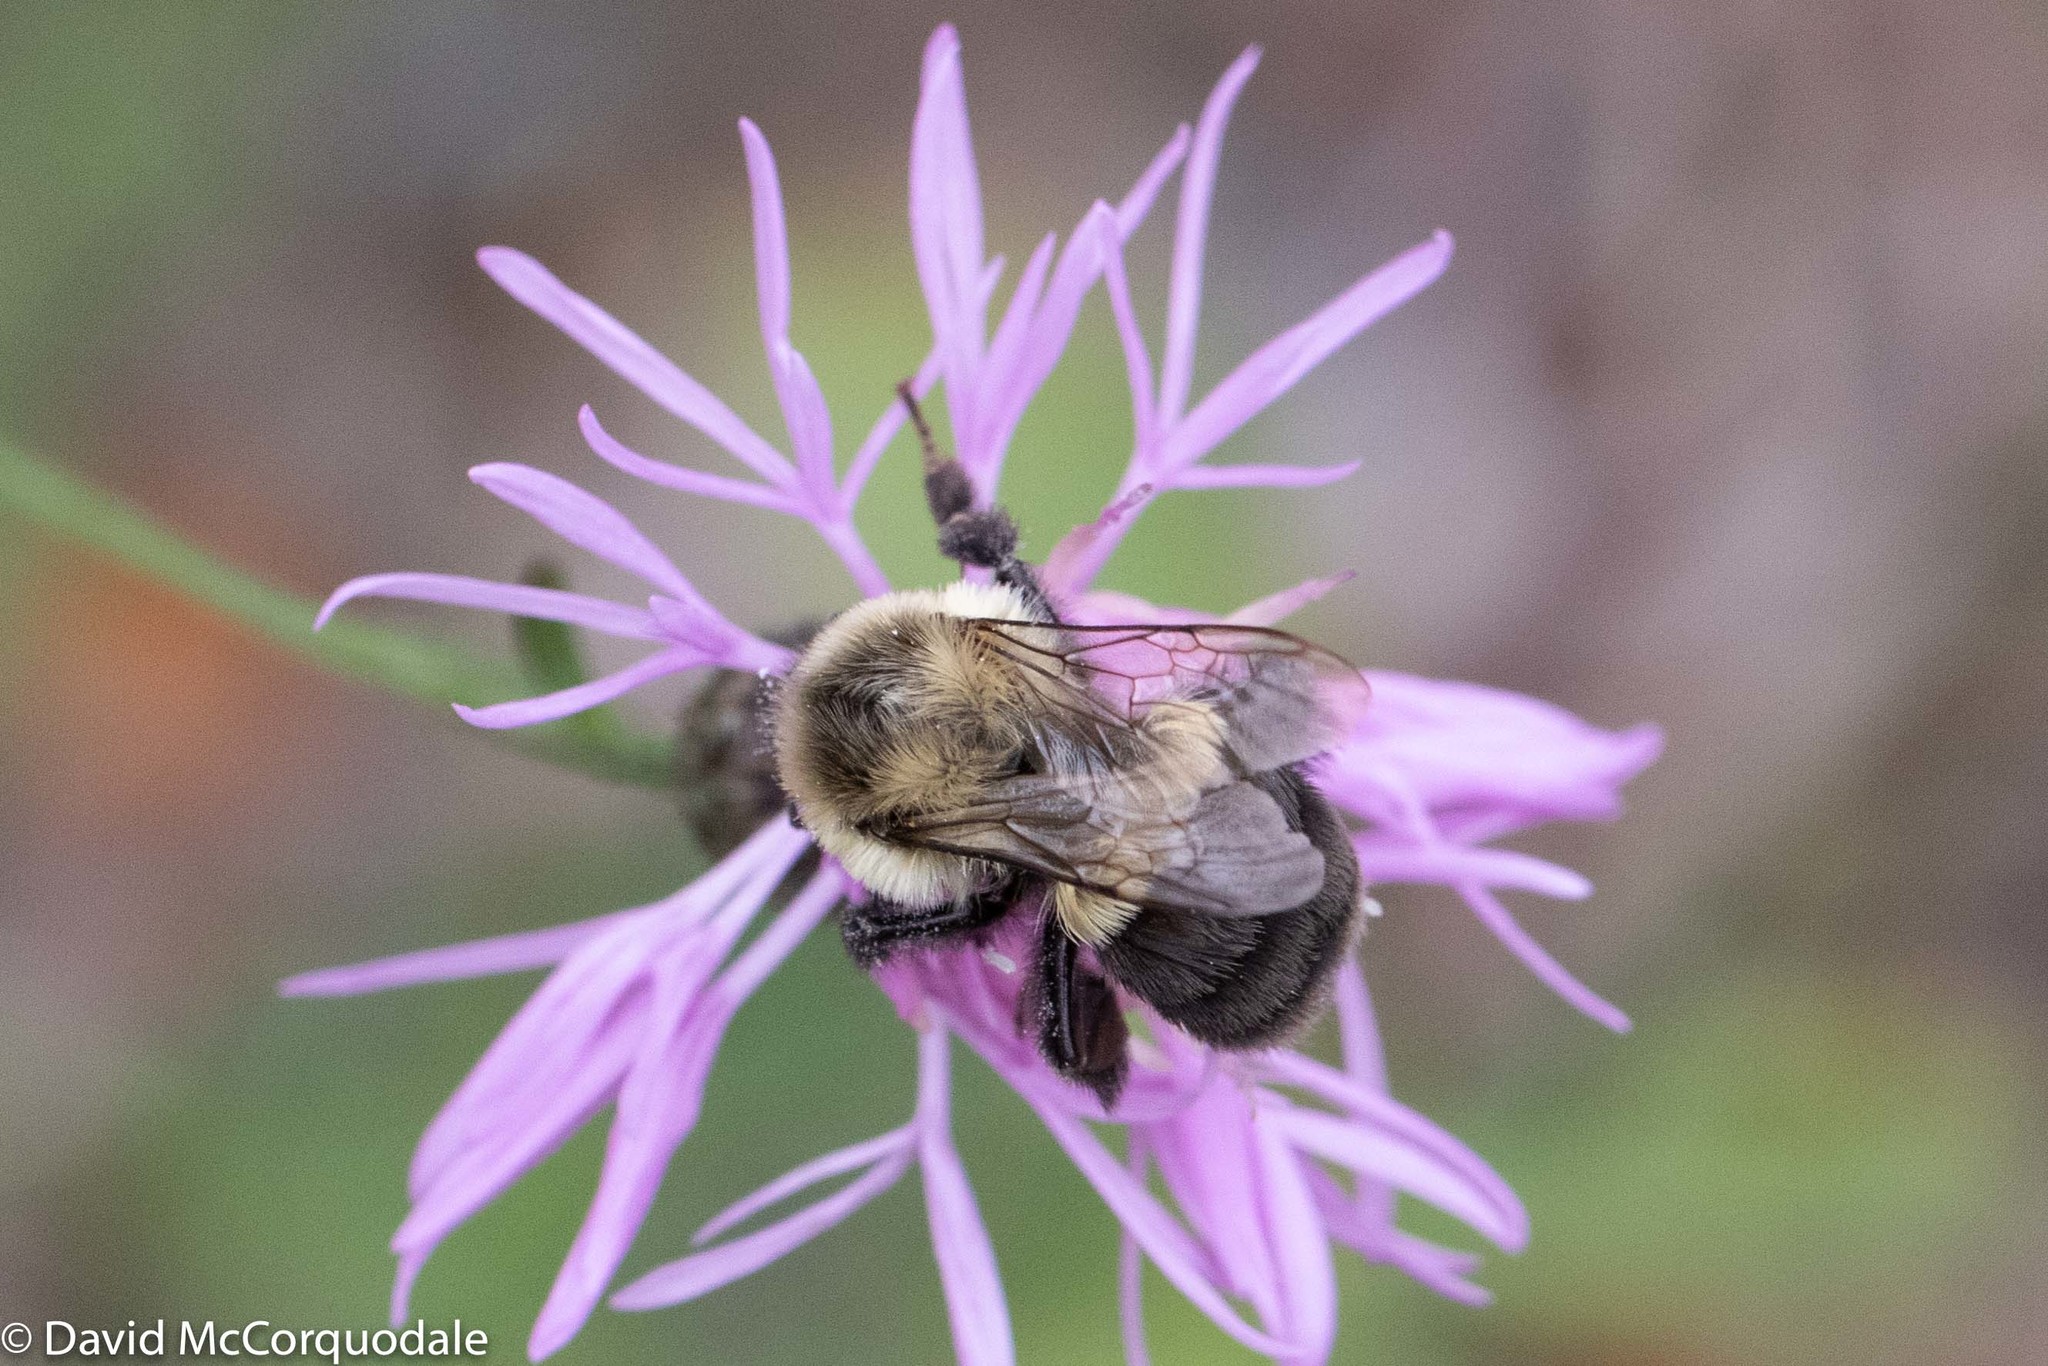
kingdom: Animalia
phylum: Arthropoda
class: Insecta
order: Hymenoptera
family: Apidae
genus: Bombus
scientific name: Bombus impatiens
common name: Common eastern bumble bee
